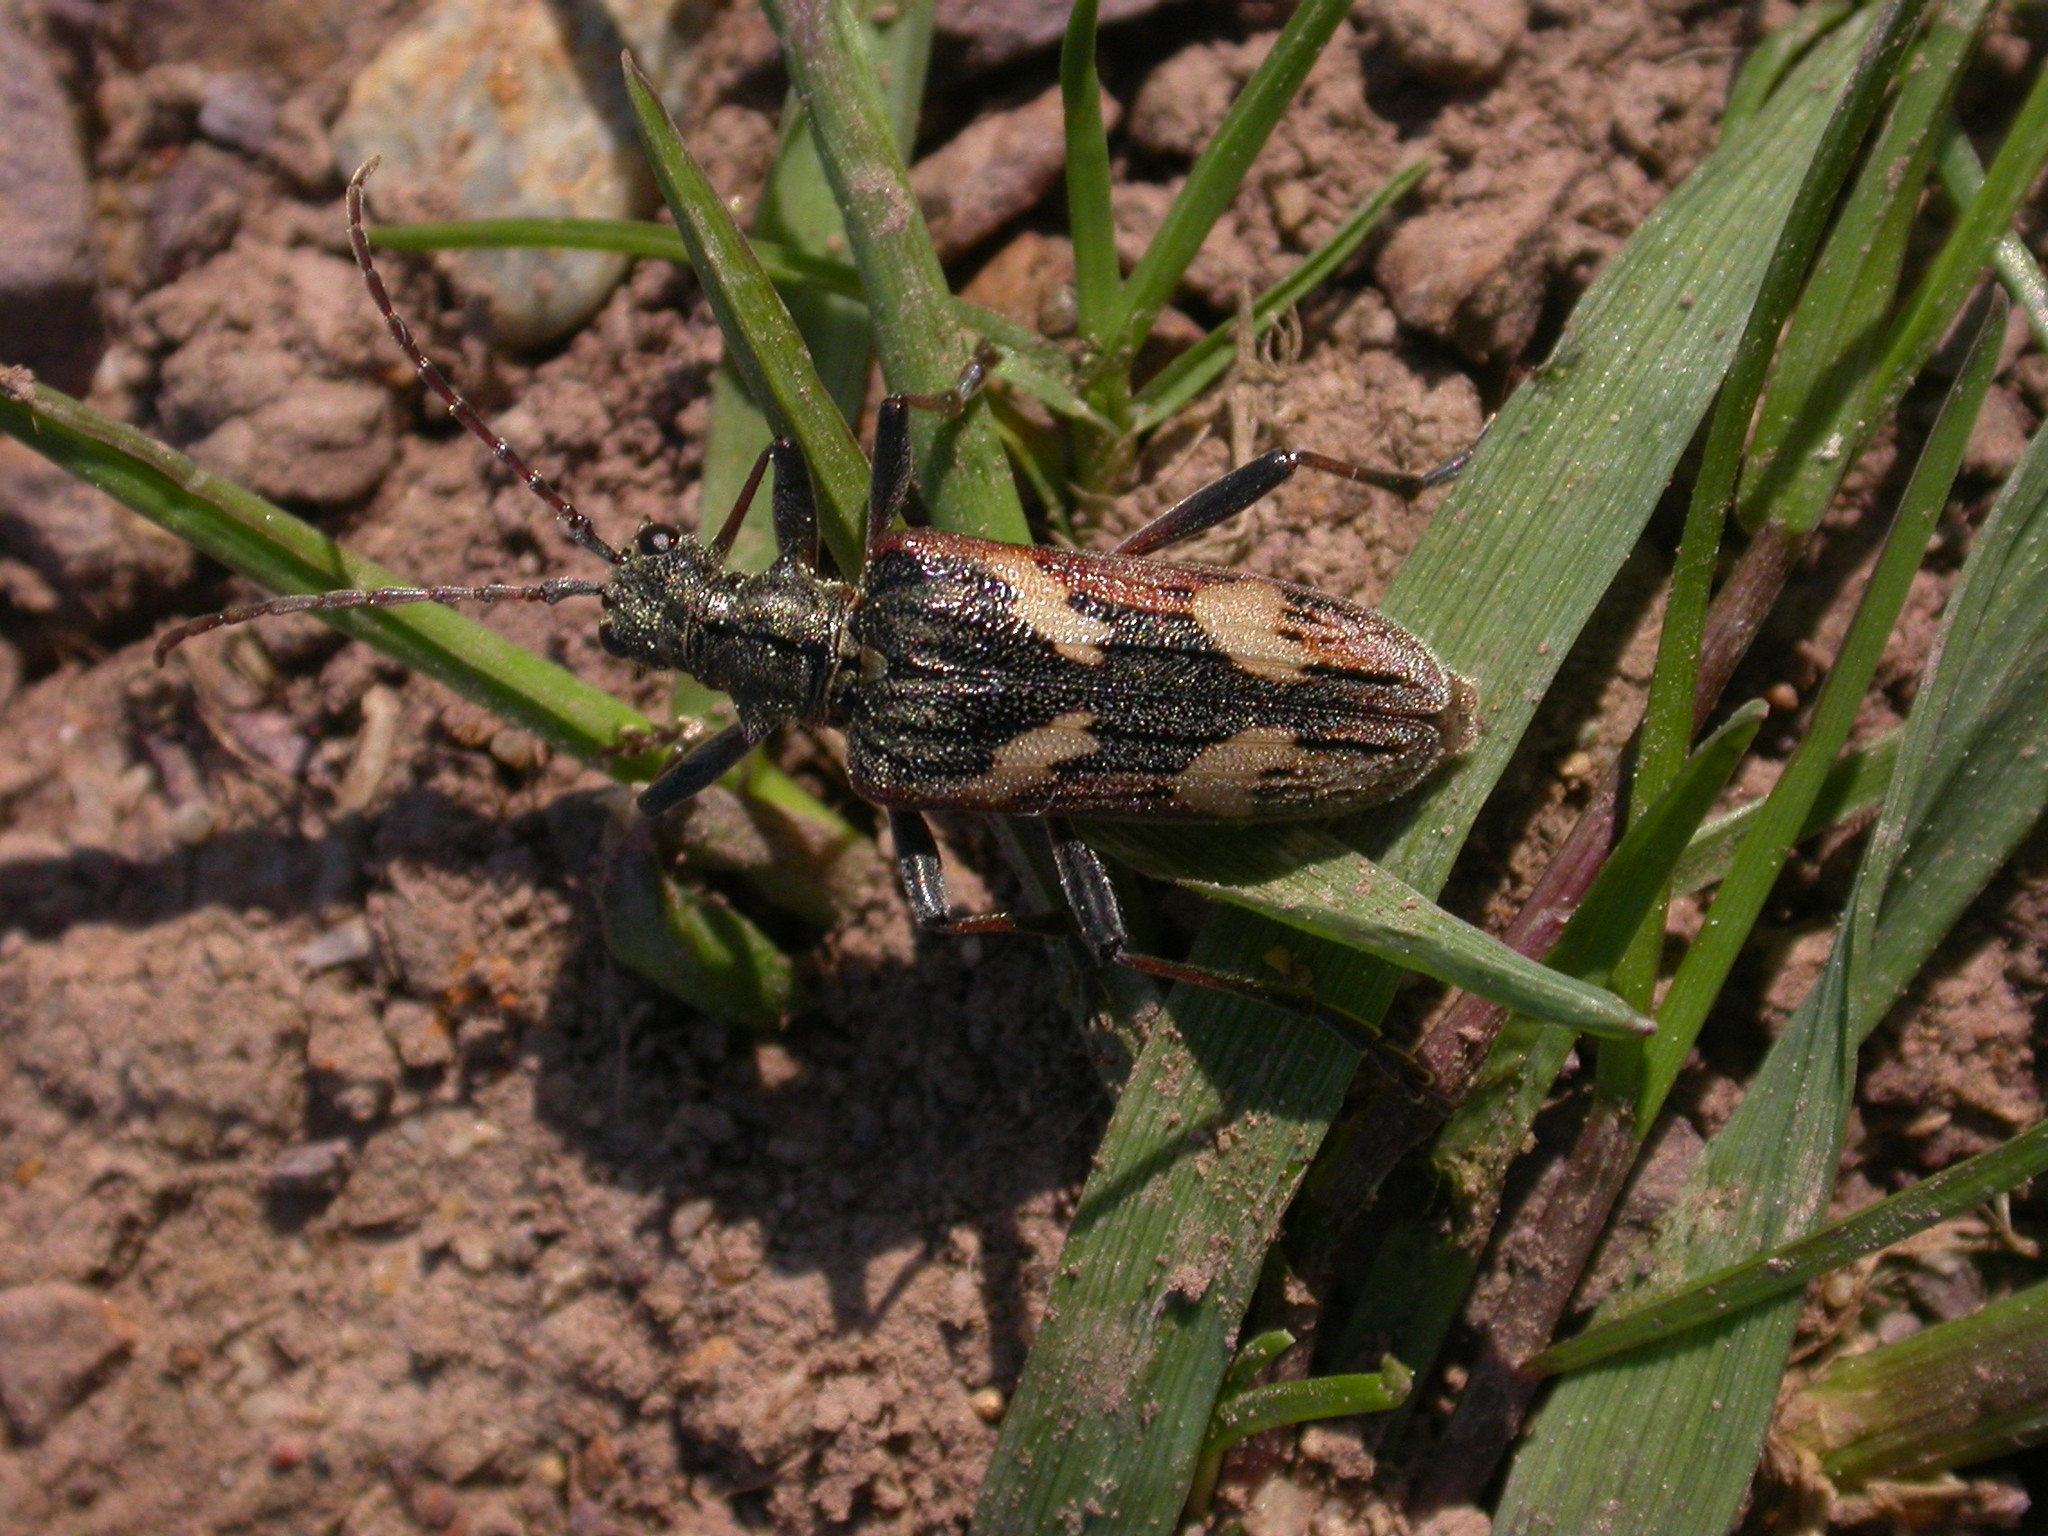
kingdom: Animalia
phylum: Arthropoda
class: Insecta
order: Coleoptera
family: Cerambycidae
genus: Rhagium
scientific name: Rhagium bifasciatum
